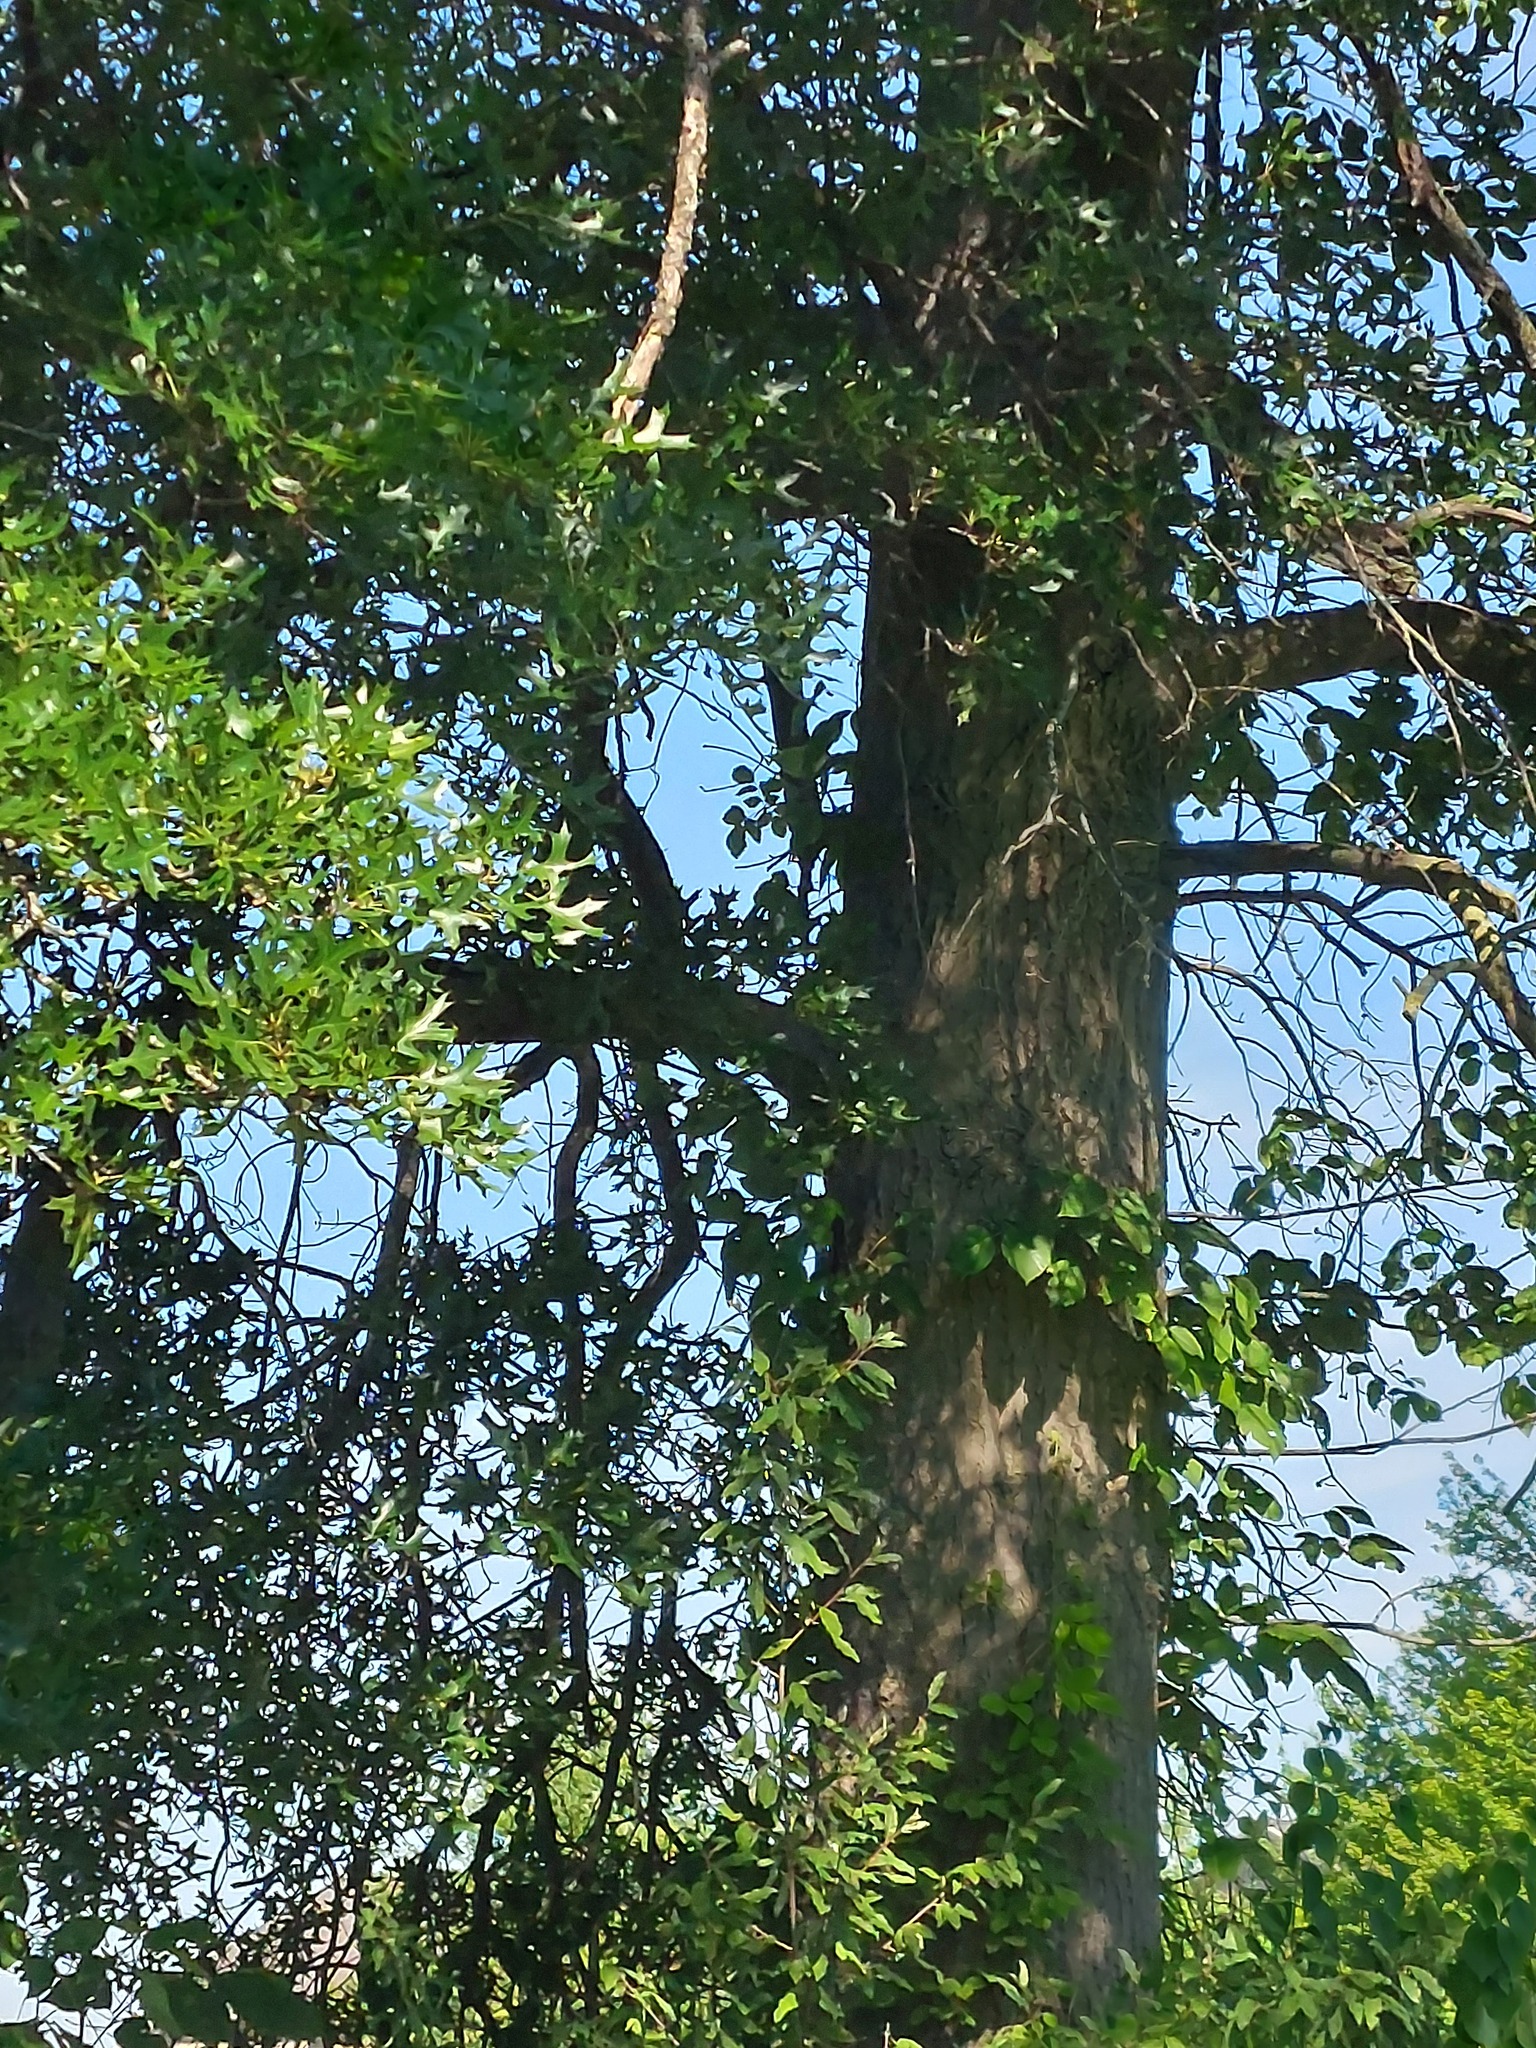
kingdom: Plantae
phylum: Tracheophyta
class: Magnoliopsida
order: Fagales
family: Fagaceae
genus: Quercus
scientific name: Quercus palustris
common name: Pin oak
